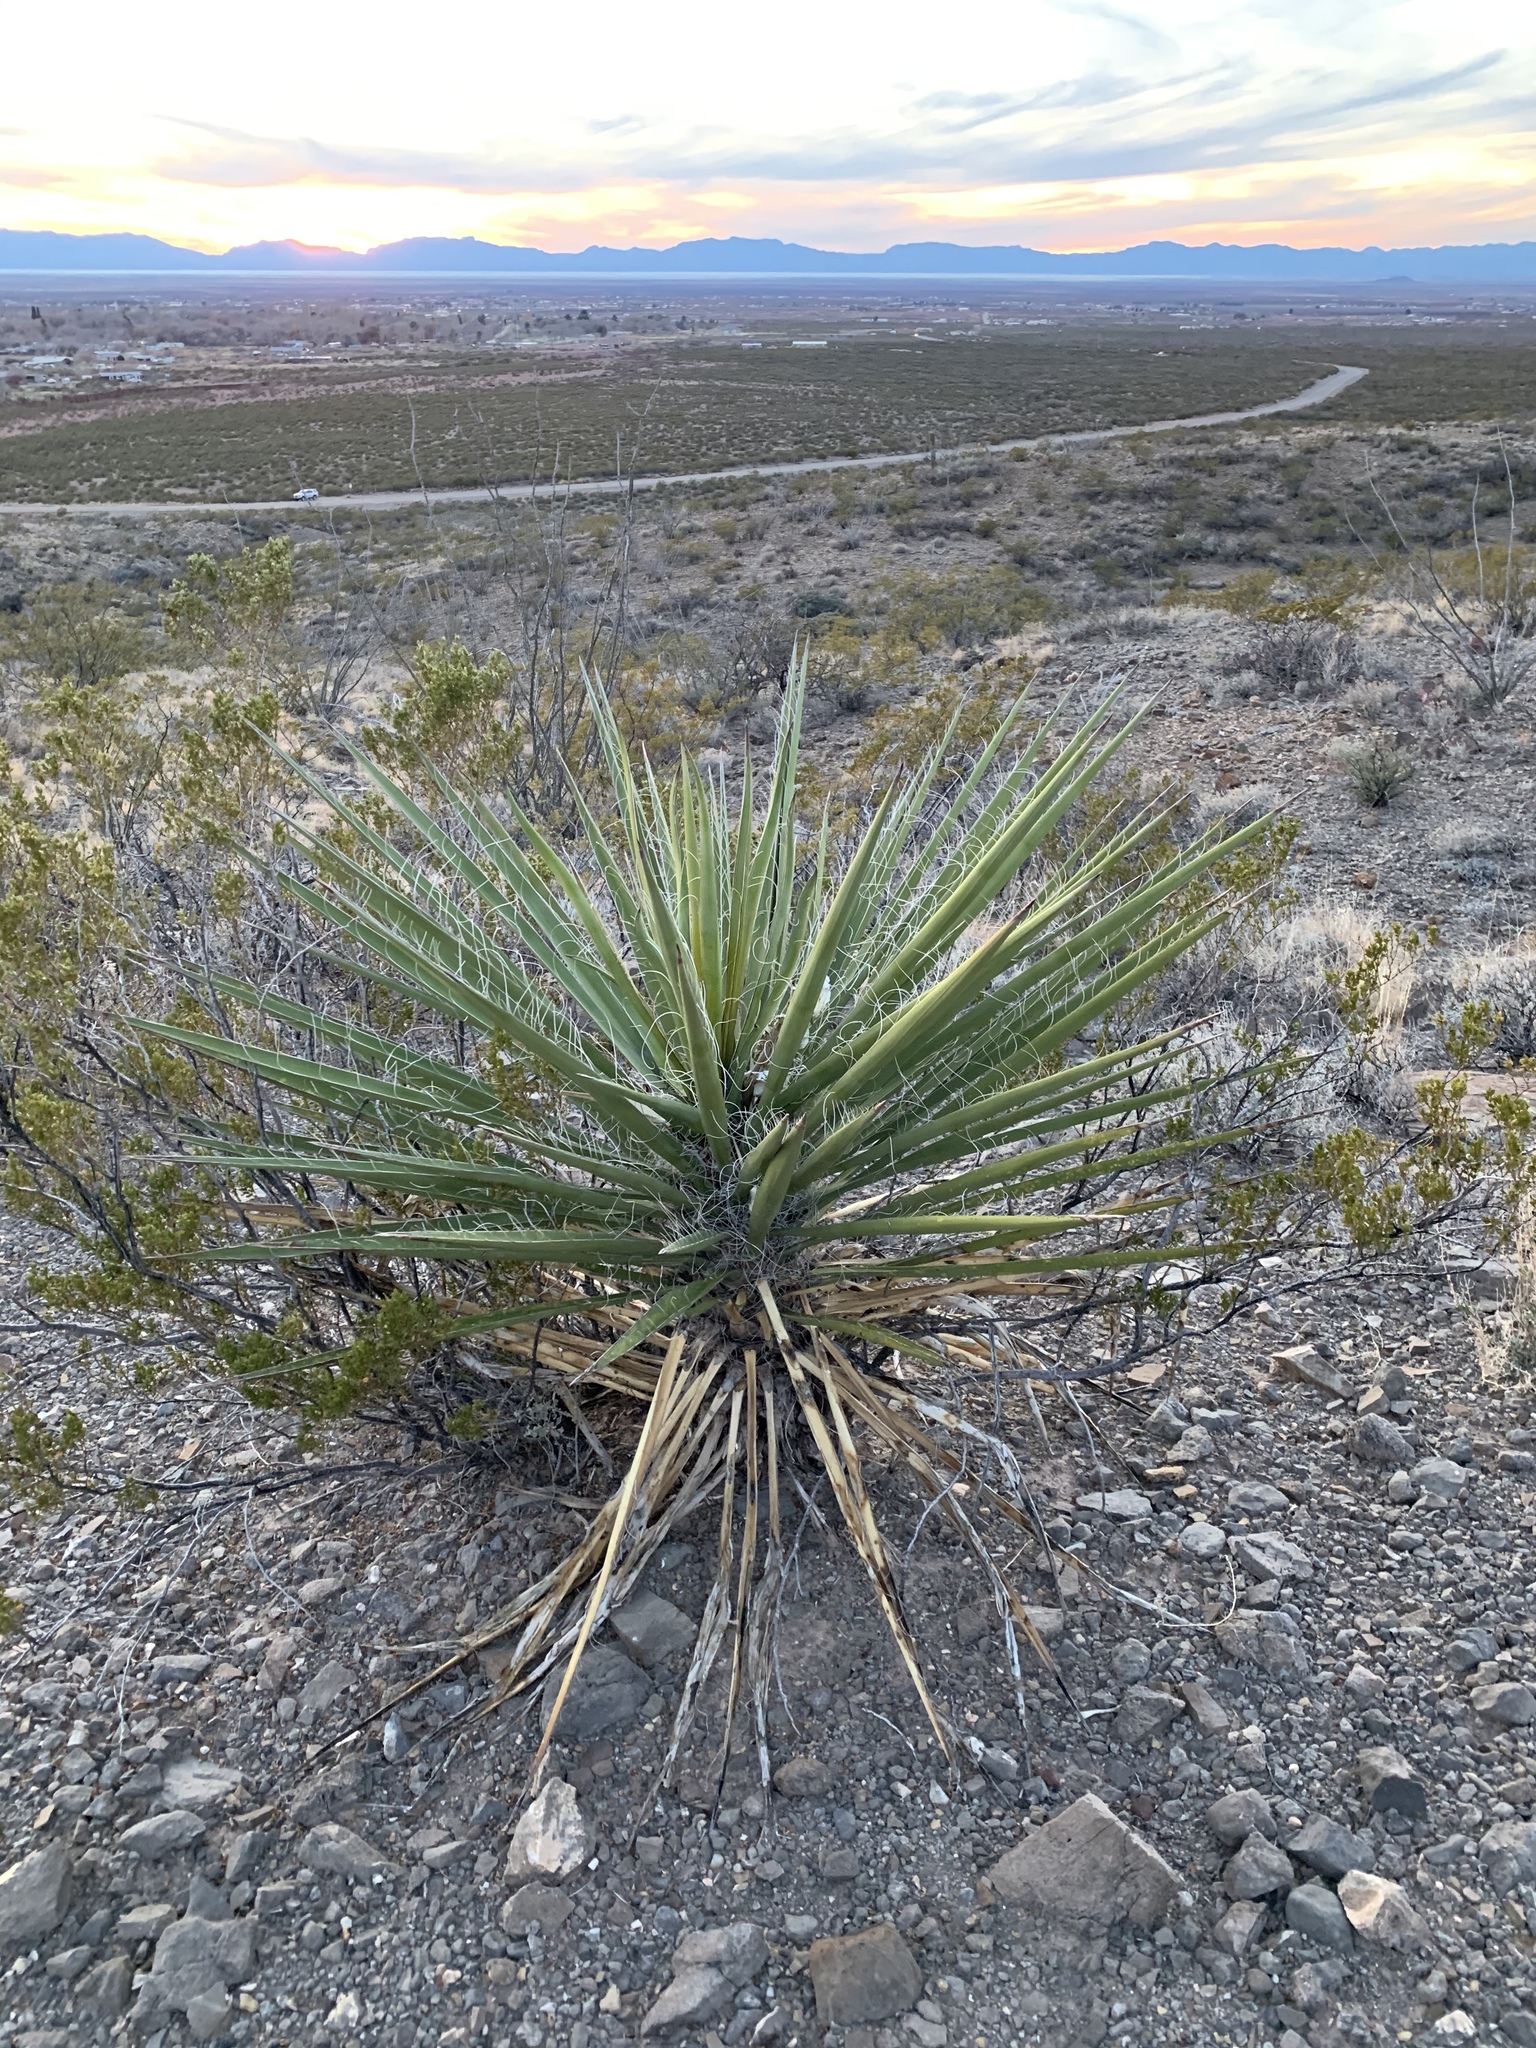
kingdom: Plantae
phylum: Tracheophyta
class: Liliopsida
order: Asparagales
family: Asparagaceae
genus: Yucca
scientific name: Yucca treculiana
